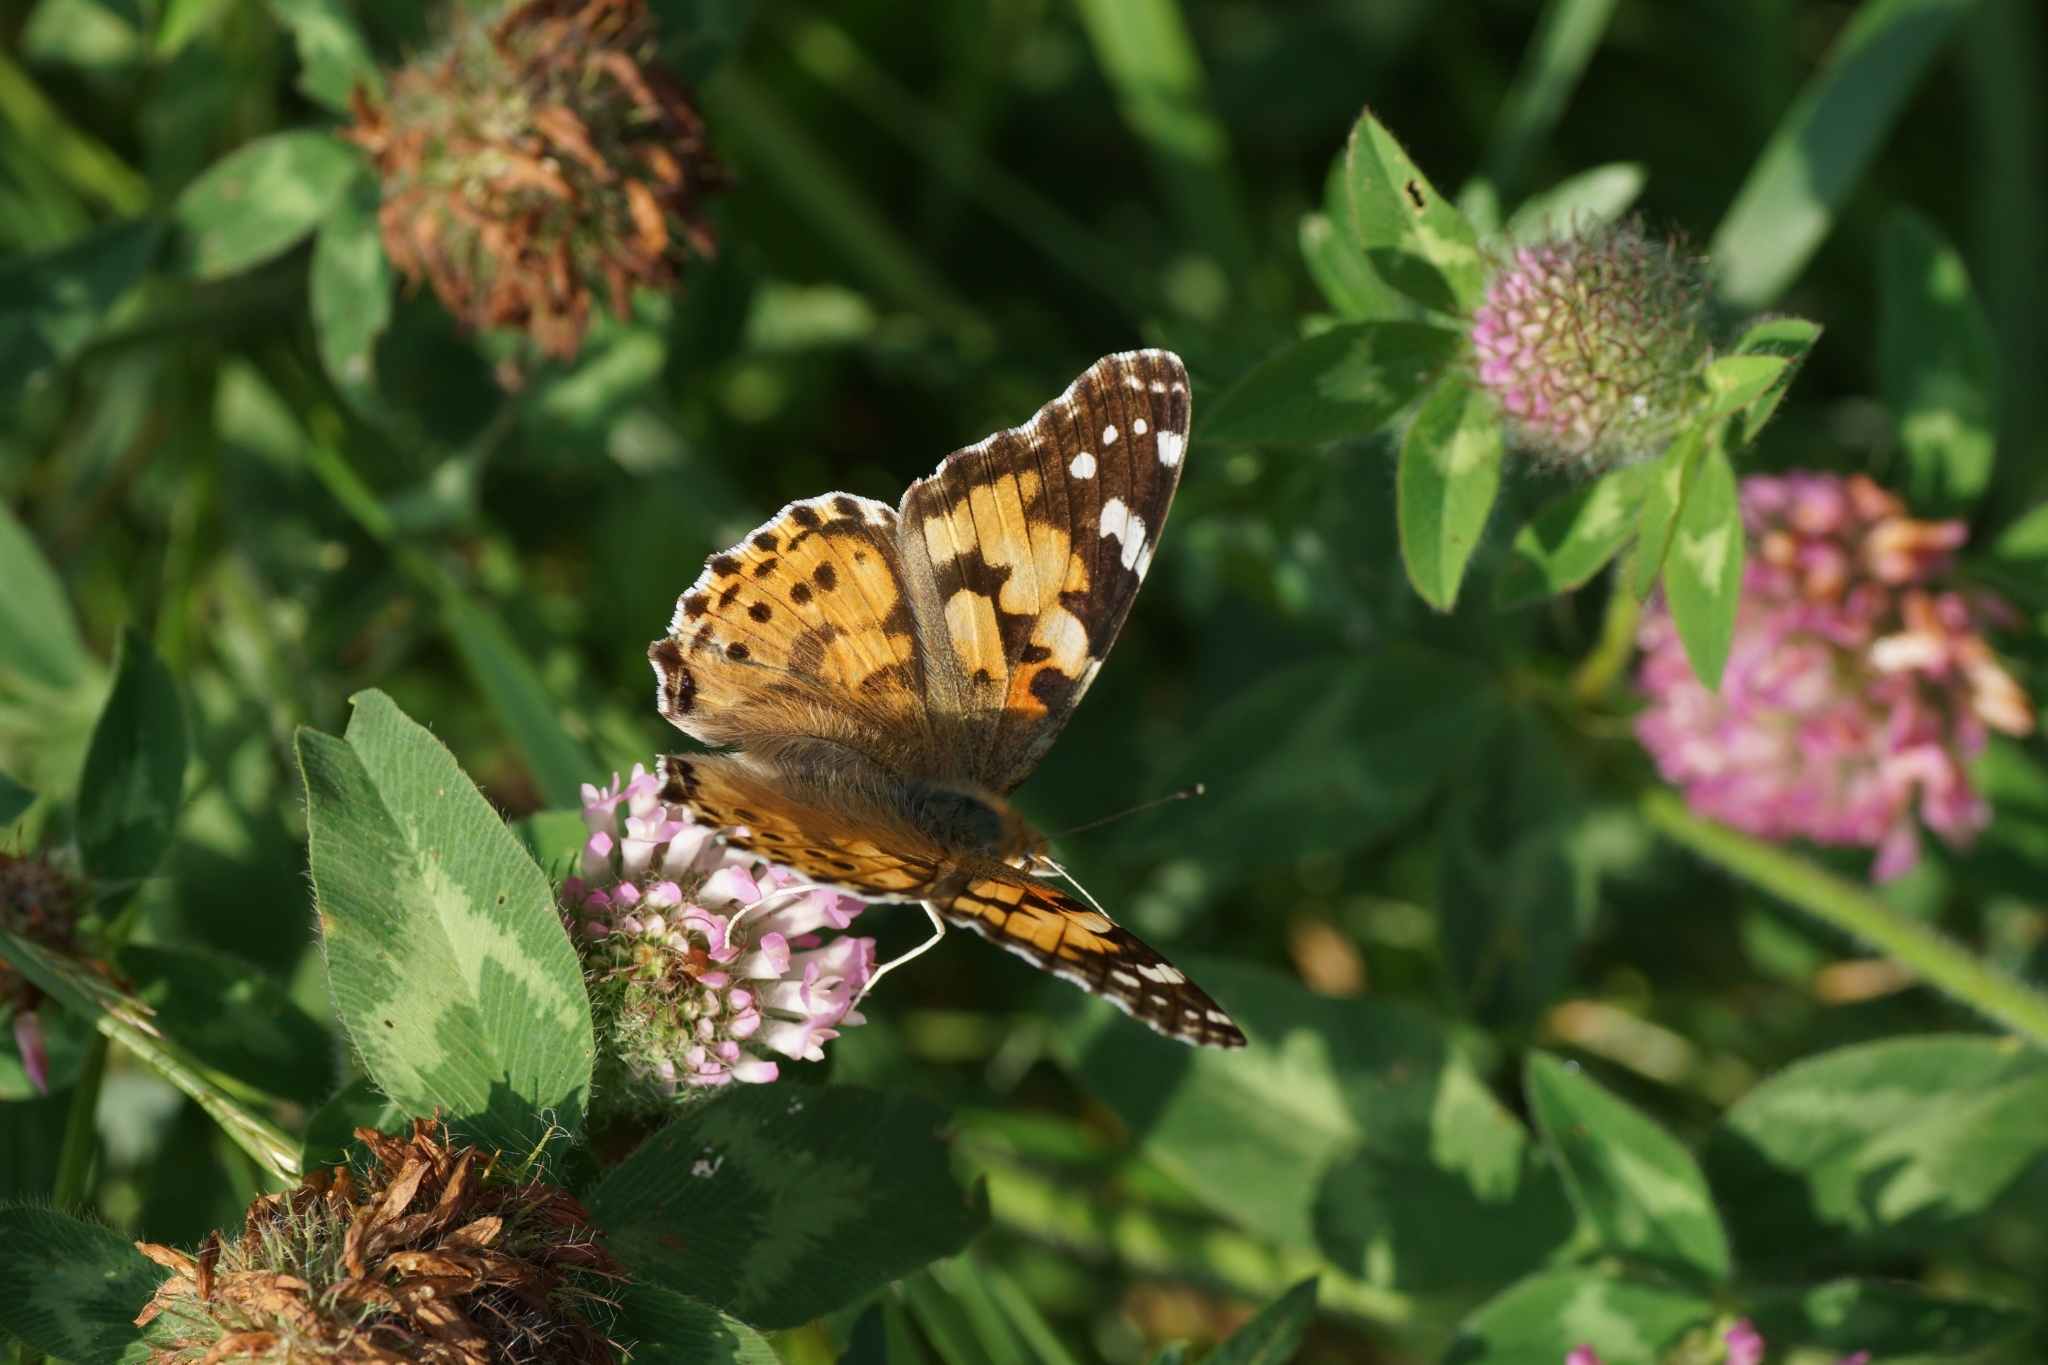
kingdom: Animalia
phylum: Arthropoda
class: Insecta
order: Lepidoptera
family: Nymphalidae
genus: Vanessa
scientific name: Vanessa cardui
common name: Painted lady
